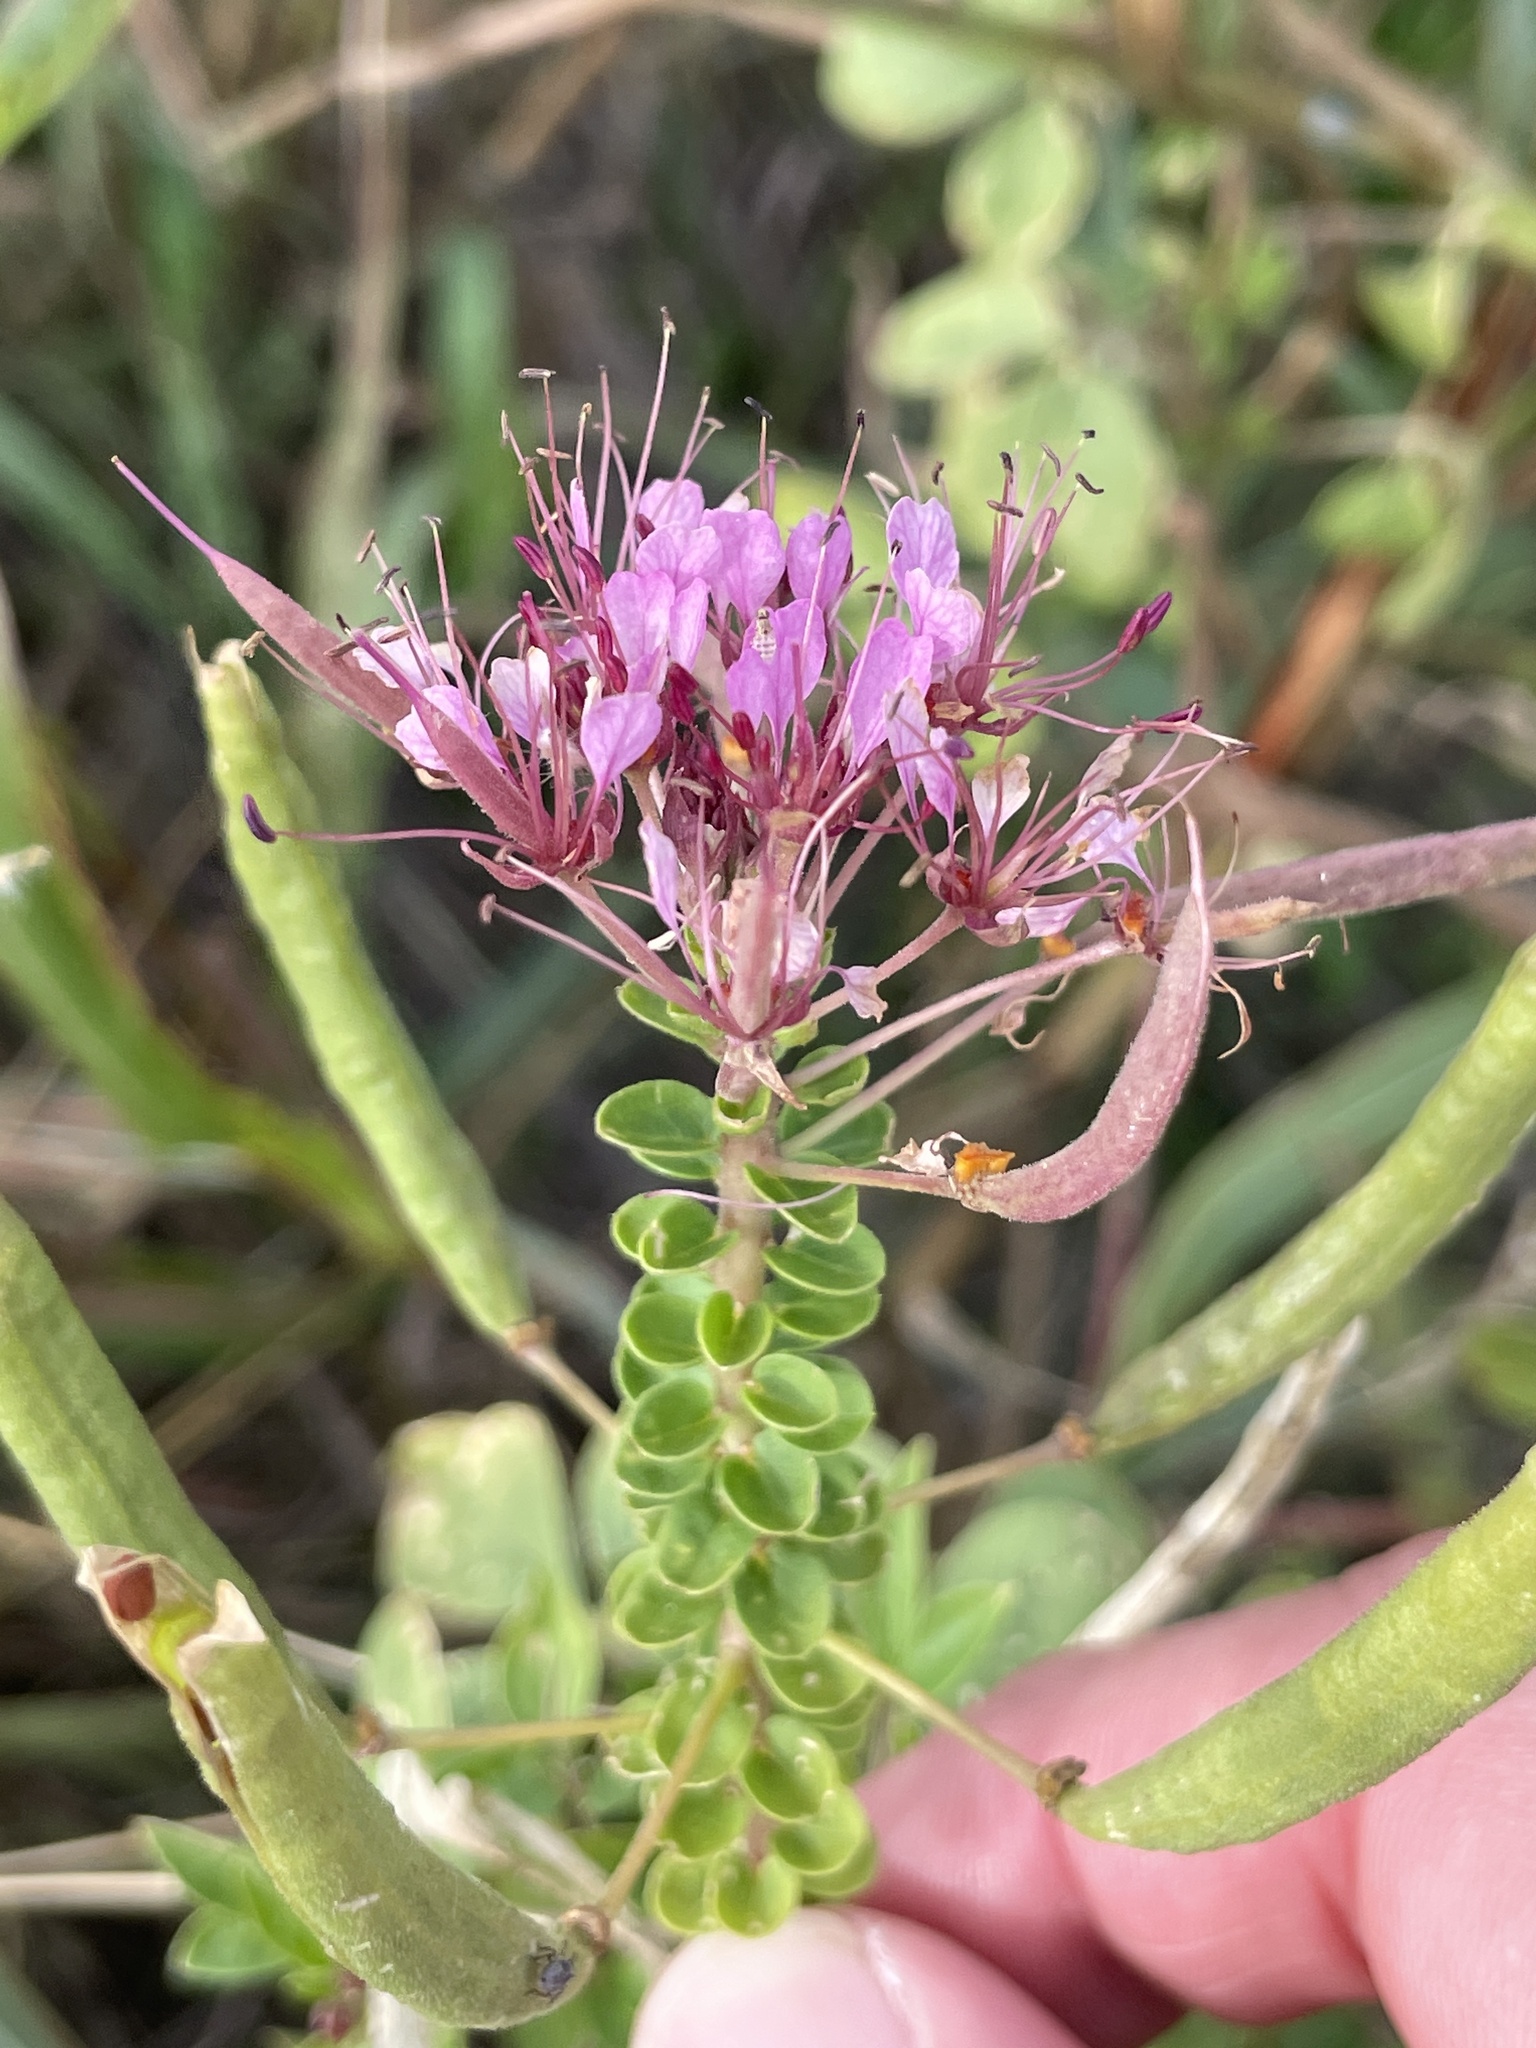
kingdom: Plantae
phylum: Tracheophyta
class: Magnoliopsida
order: Brassicales
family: Cleomaceae
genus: Polanisia
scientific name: Polanisia dodecandra
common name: Clammyweed
